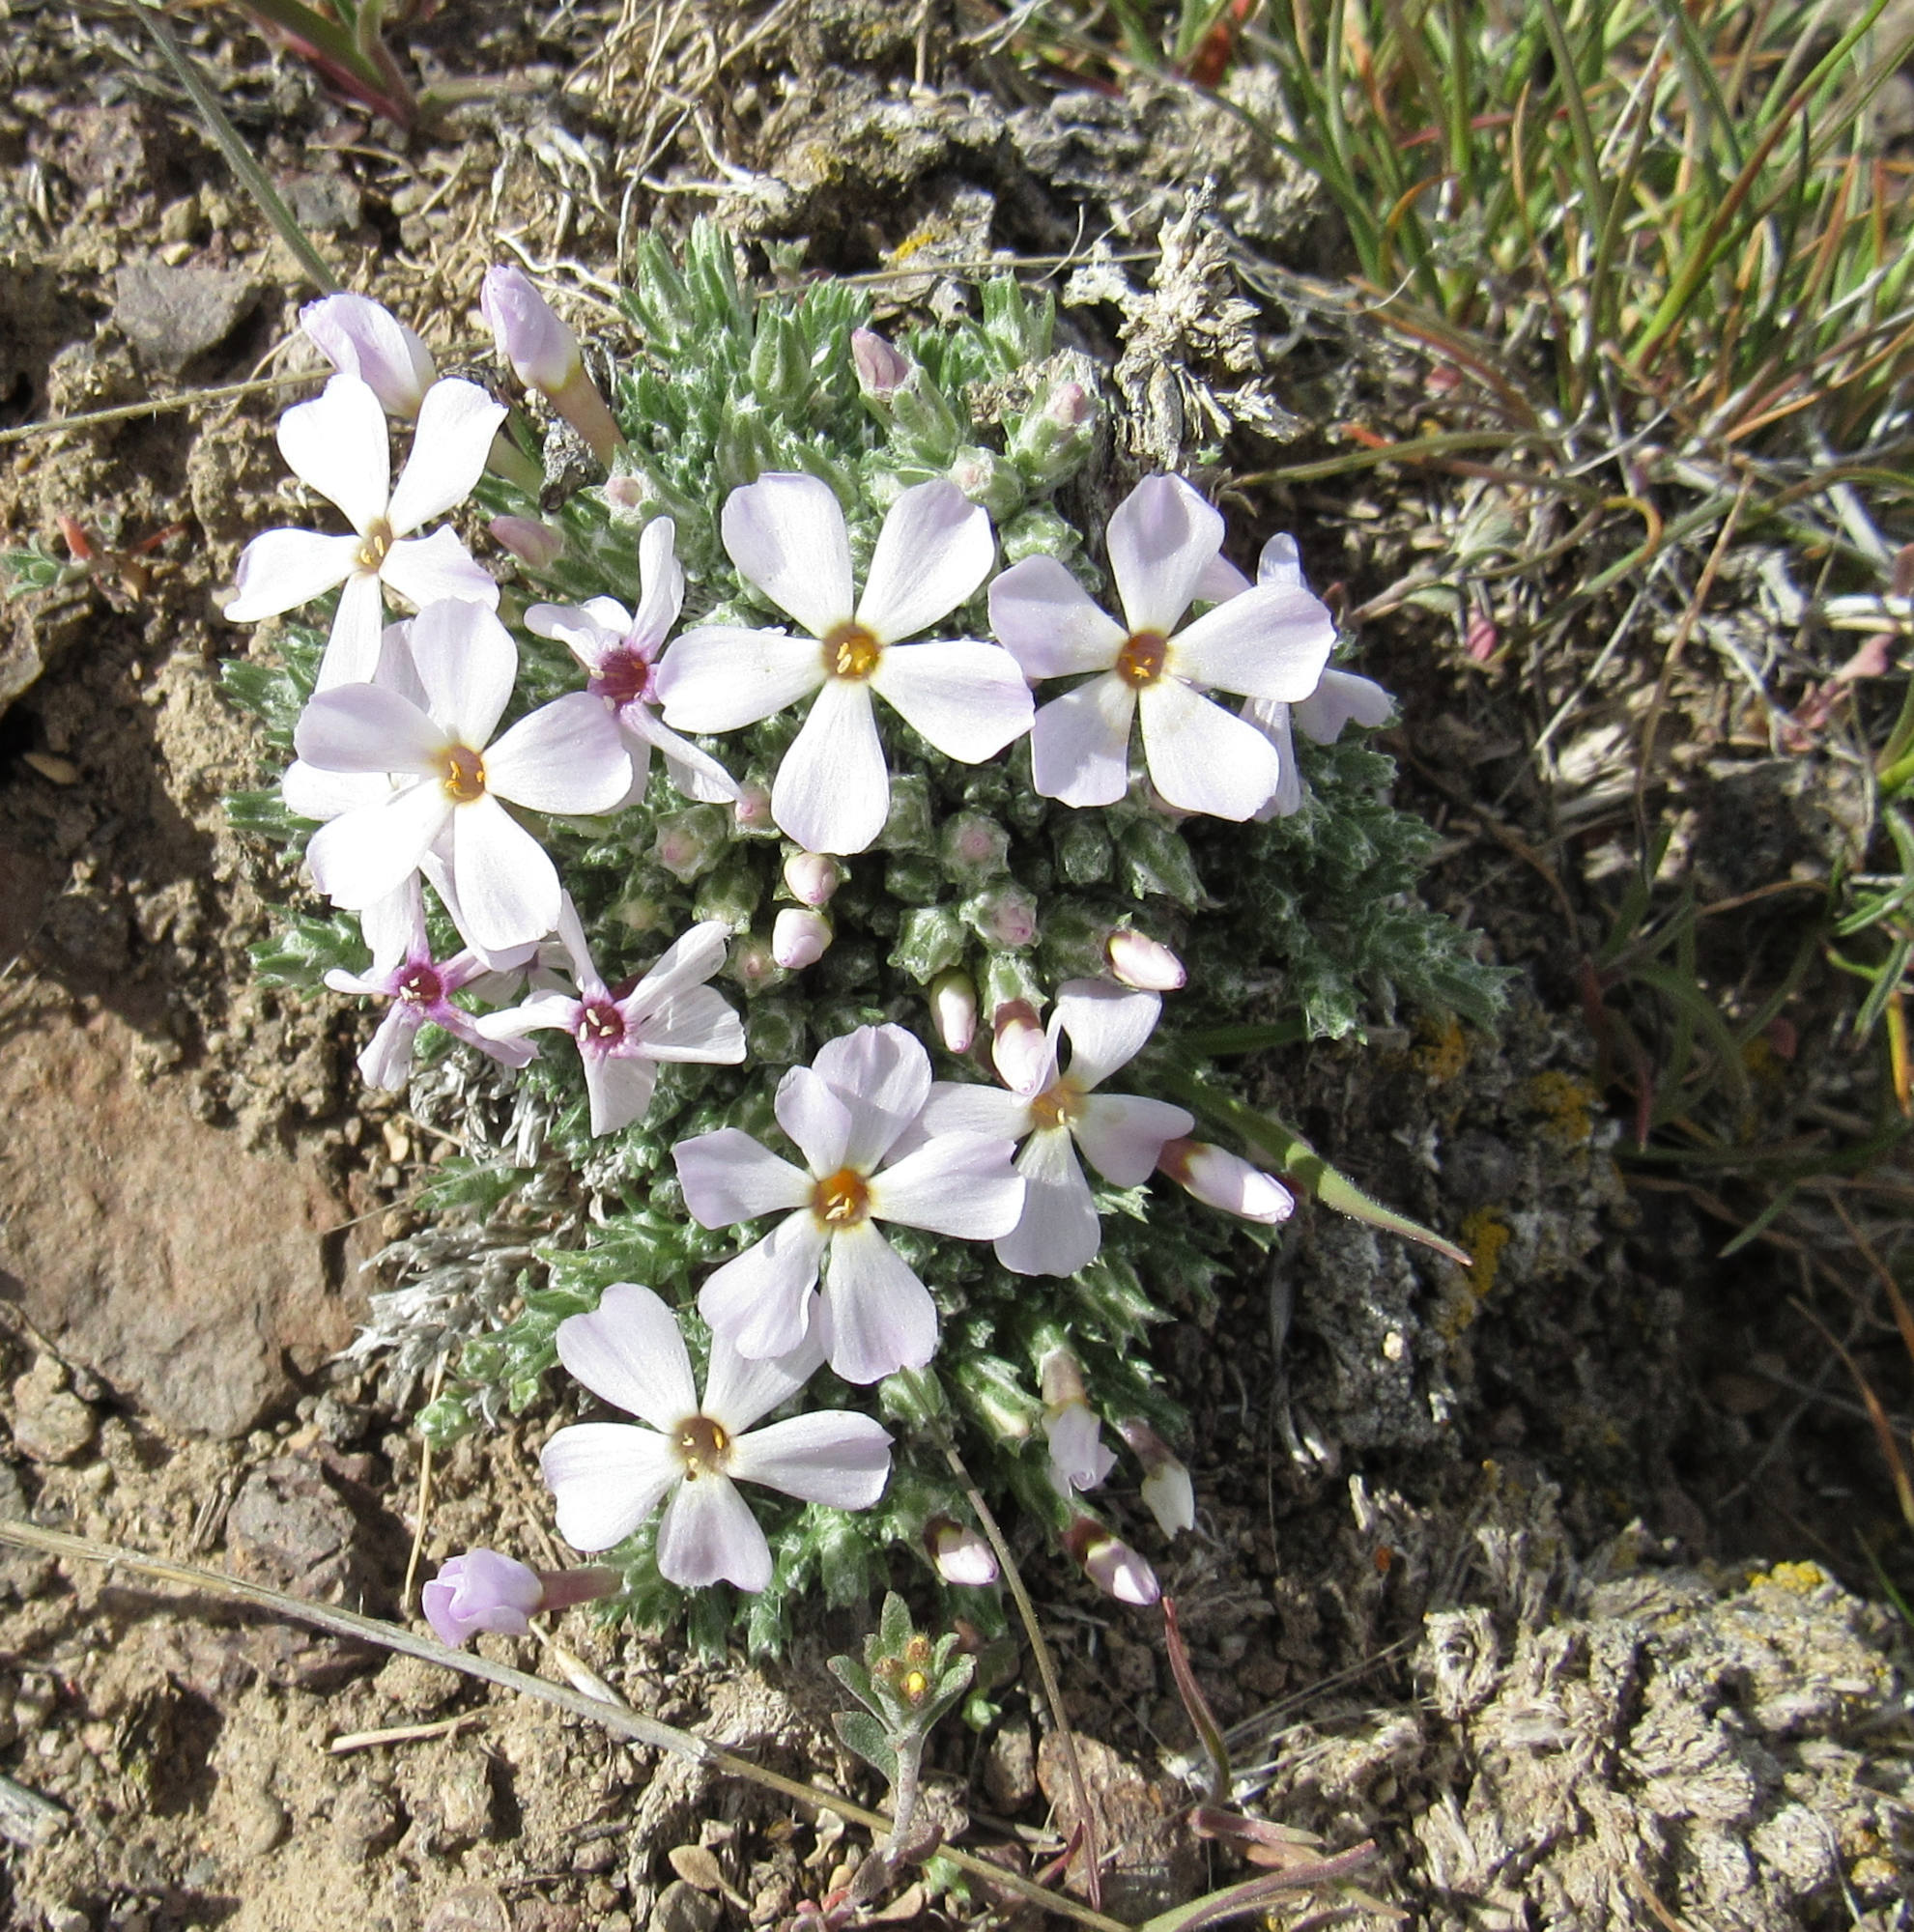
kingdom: Plantae
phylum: Tracheophyta
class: Magnoliopsida
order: Ericales
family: Polemoniaceae
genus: Phlox
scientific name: Phlox hoodii
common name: Moss phlox
